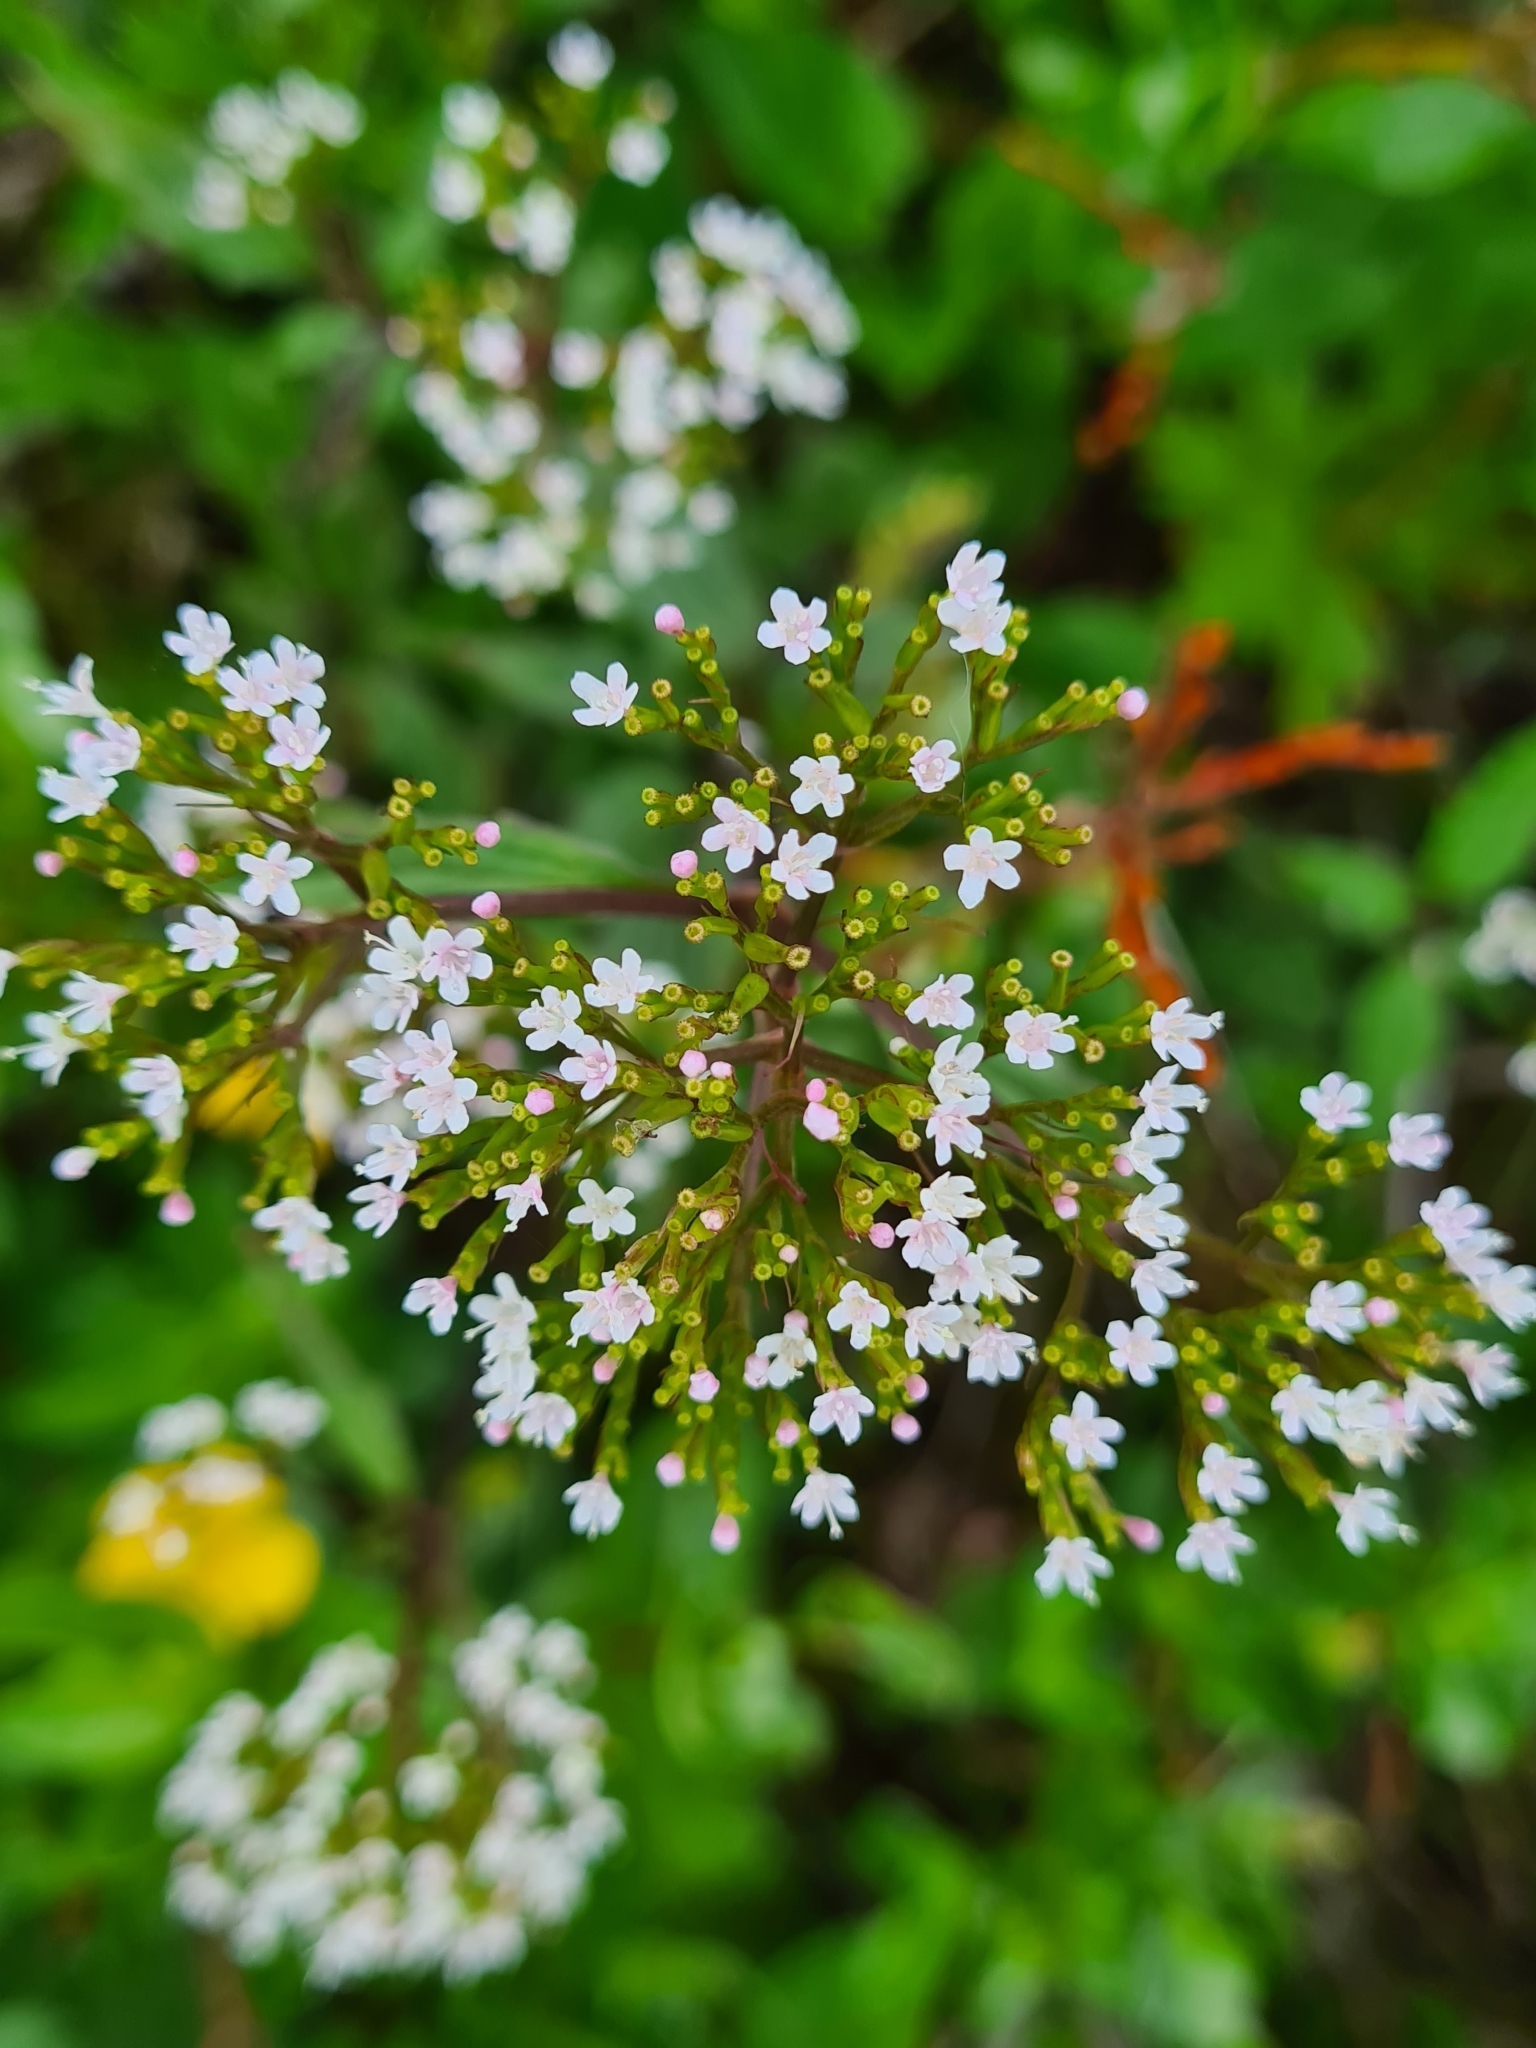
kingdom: Plantae
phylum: Tracheophyta
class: Magnoliopsida
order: Dipsacales
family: Caprifoliaceae
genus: Valeriana
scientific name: Valeriana tripteris
